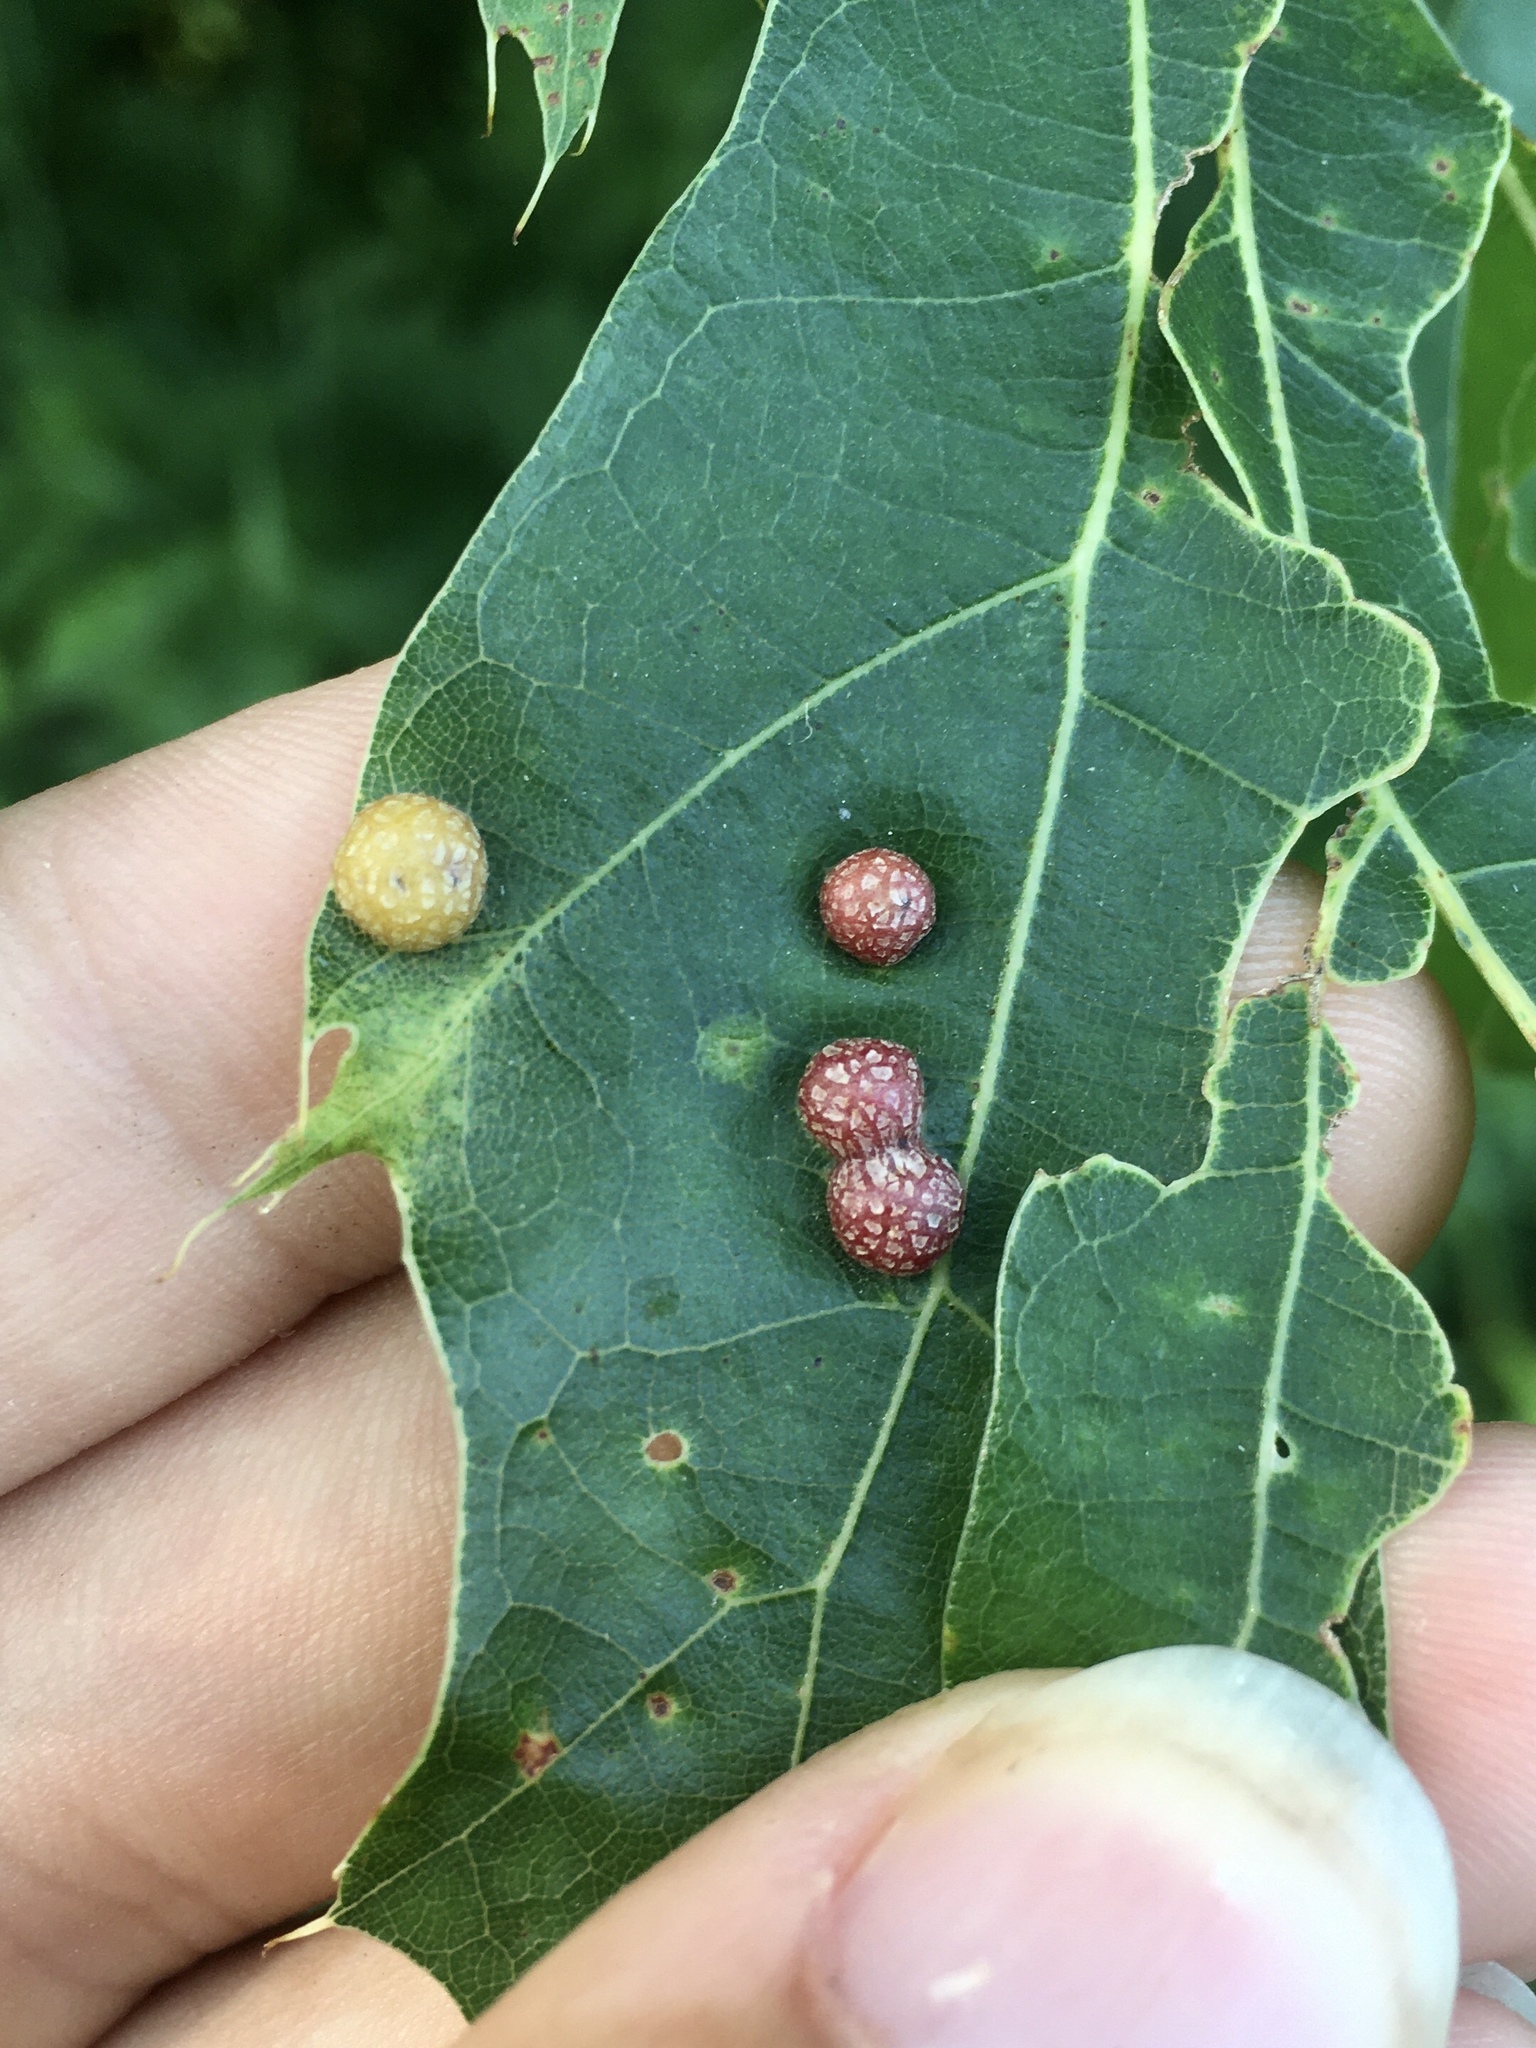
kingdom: Animalia
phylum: Arthropoda
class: Insecta
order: Diptera
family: Cecidomyiidae
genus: Polystepha
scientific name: Polystepha pilulae
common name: Oak leaf gall midge
